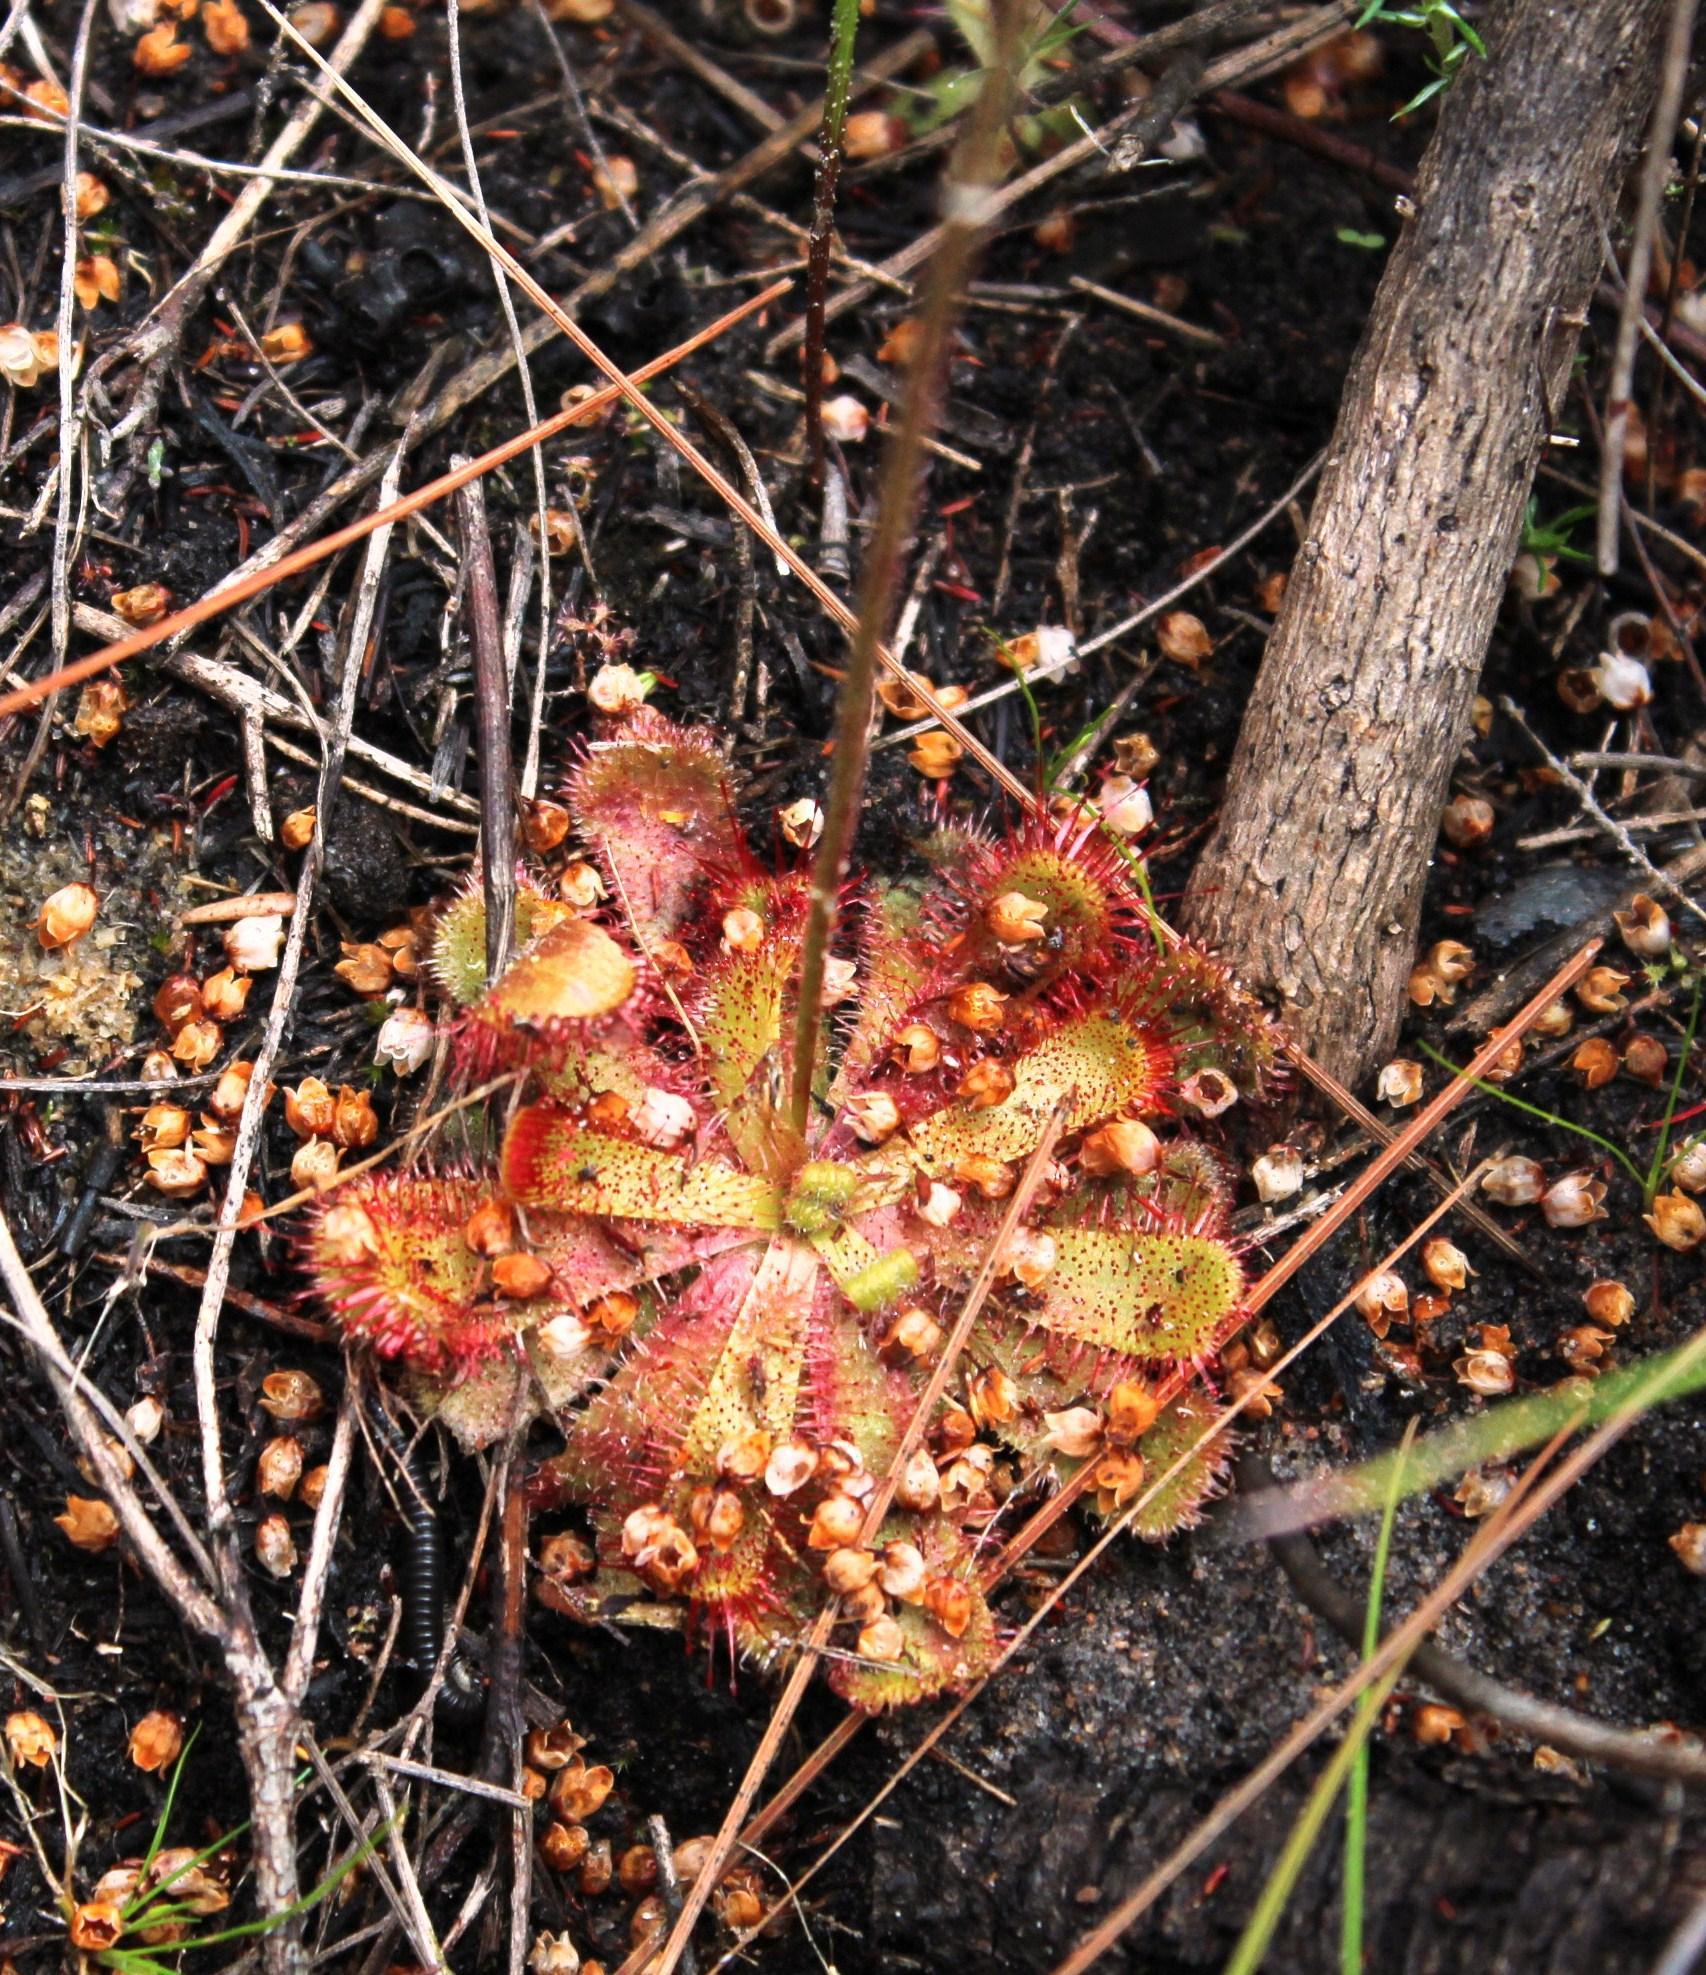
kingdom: Plantae
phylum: Tracheophyta
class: Magnoliopsida
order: Caryophyllales
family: Droseraceae
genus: Drosera
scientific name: Drosera trinervia
